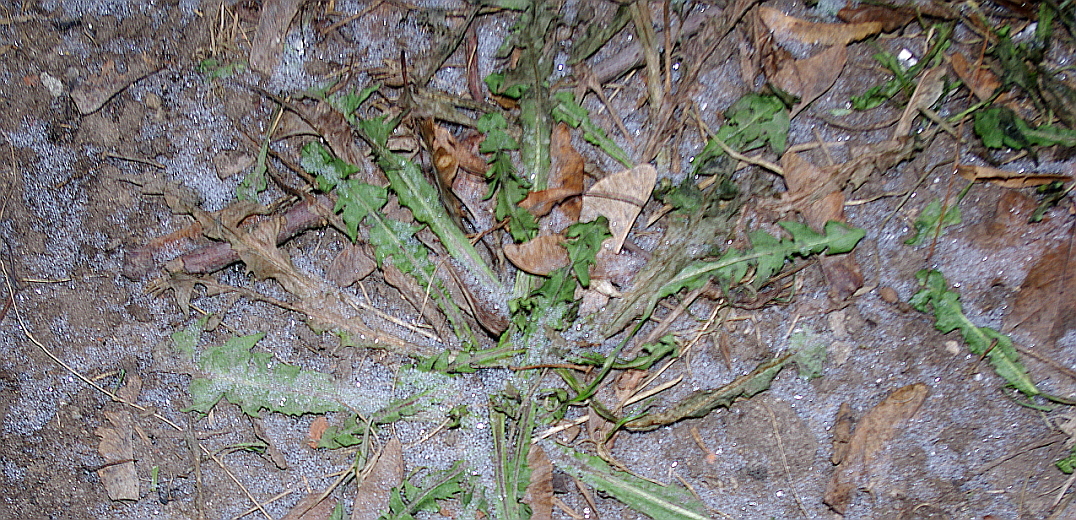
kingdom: Plantae
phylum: Tracheophyta
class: Magnoliopsida
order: Asterales
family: Asteraceae
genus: Taraxacum
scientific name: Taraxacum officinale
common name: Common dandelion
